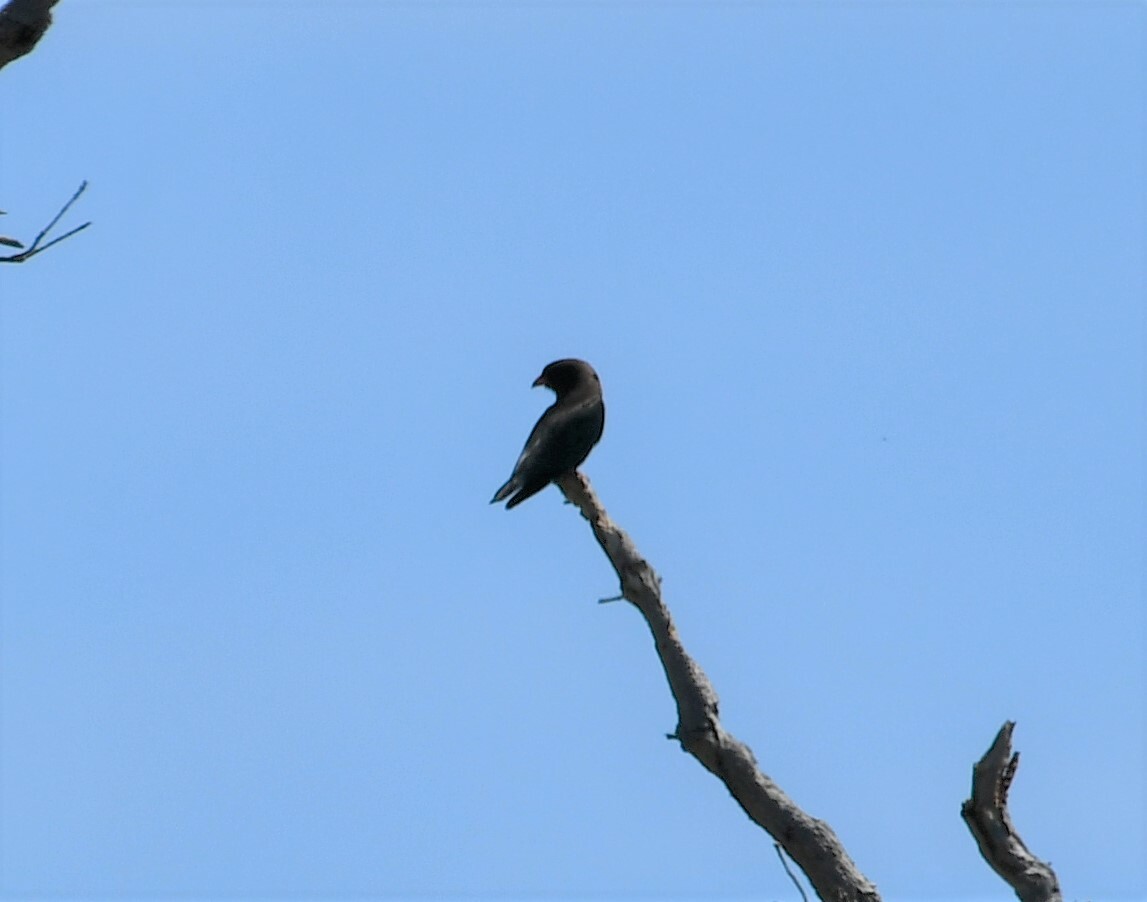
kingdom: Animalia
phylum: Chordata
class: Aves
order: Coraciiformes
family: Coraciidae
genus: Eurystomus
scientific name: Eurystomus orientalis
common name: Oriental dollarbird
